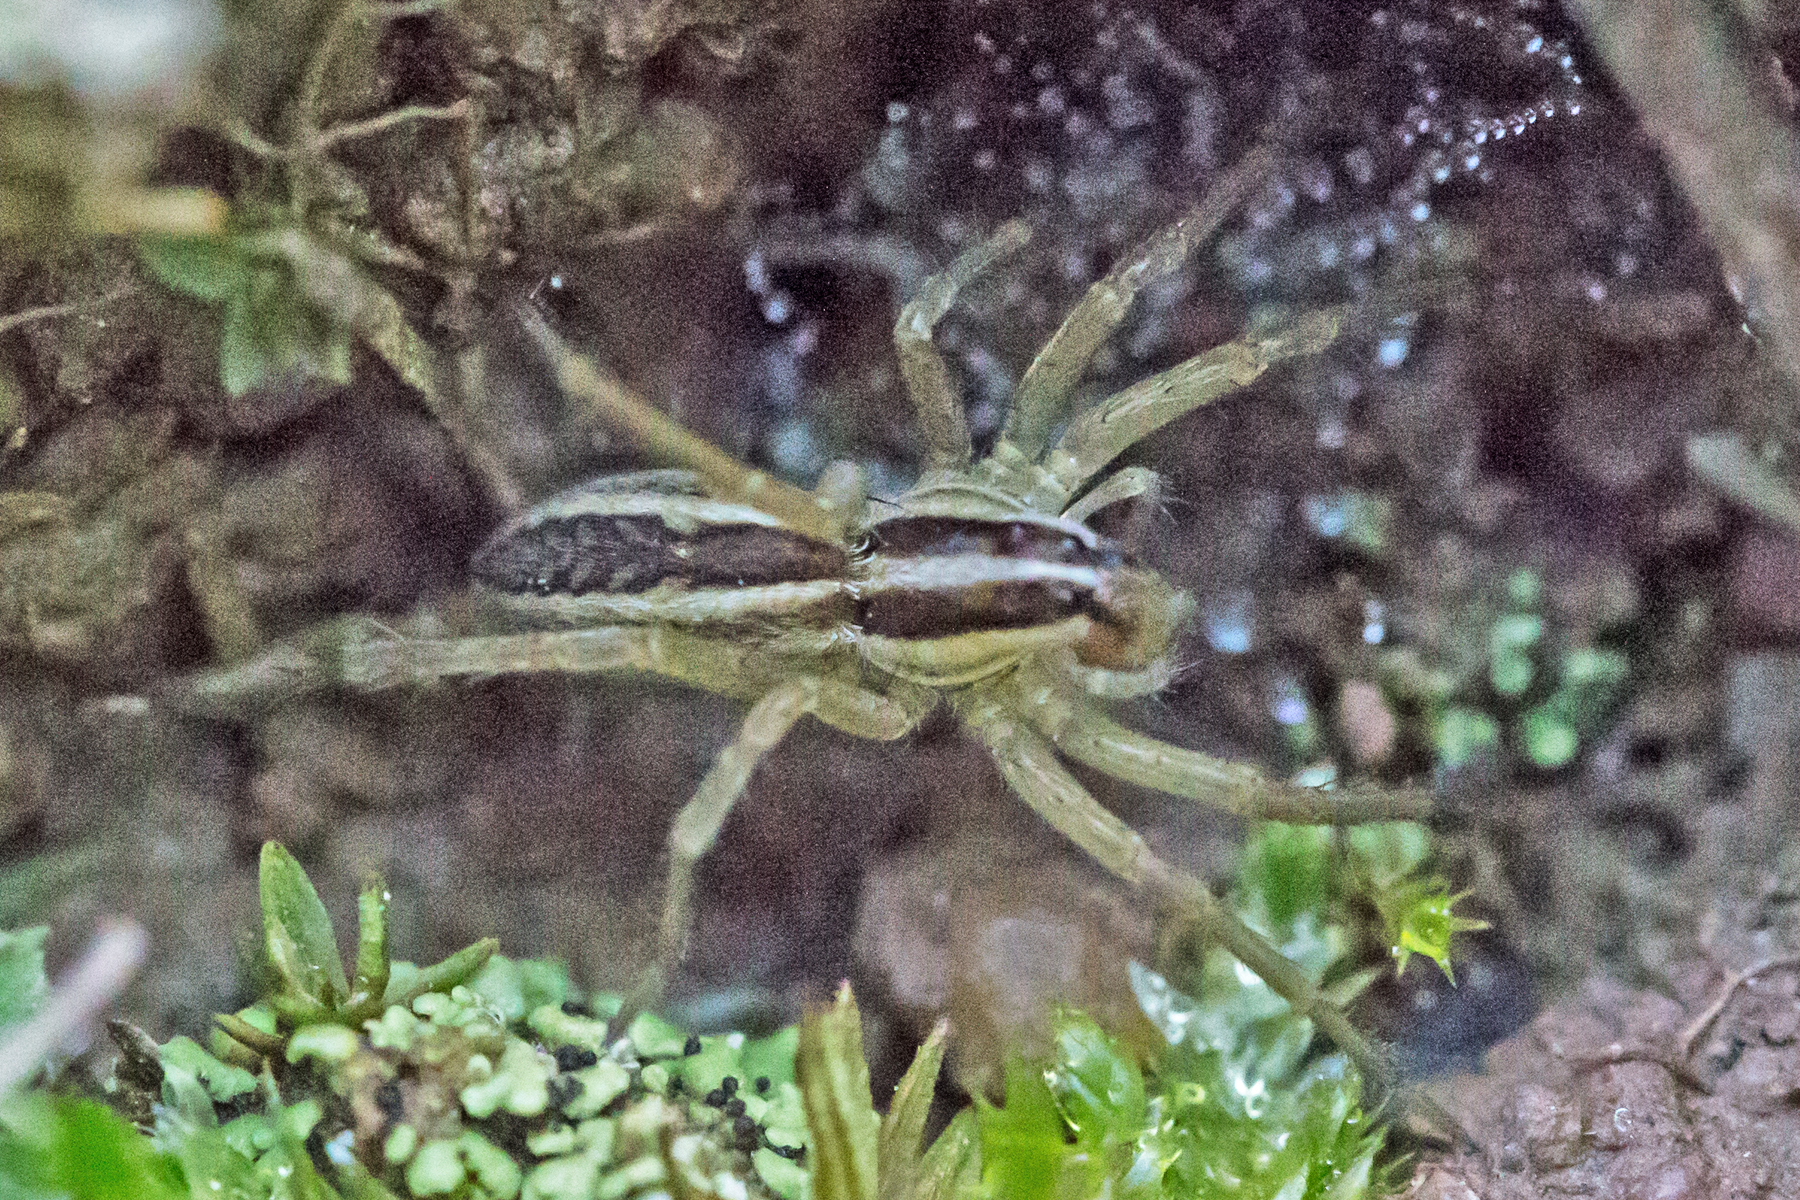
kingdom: Animalia
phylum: Arthropoda
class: Arachnida
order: Araneae
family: Lycosidae
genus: Rabidosa
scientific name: Rabidosa rabida
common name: Rabid wolf spider
